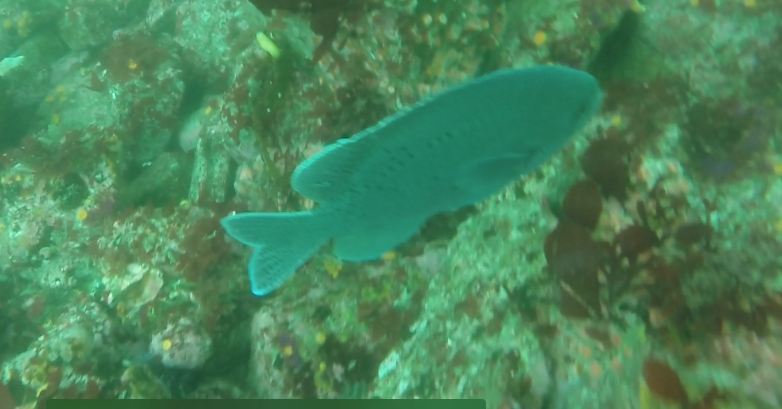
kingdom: Animalia
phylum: Chordata
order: Perciformes
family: Pomacentridae
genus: Chromis
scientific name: Chromis punctipinnis
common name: Blacksmith
